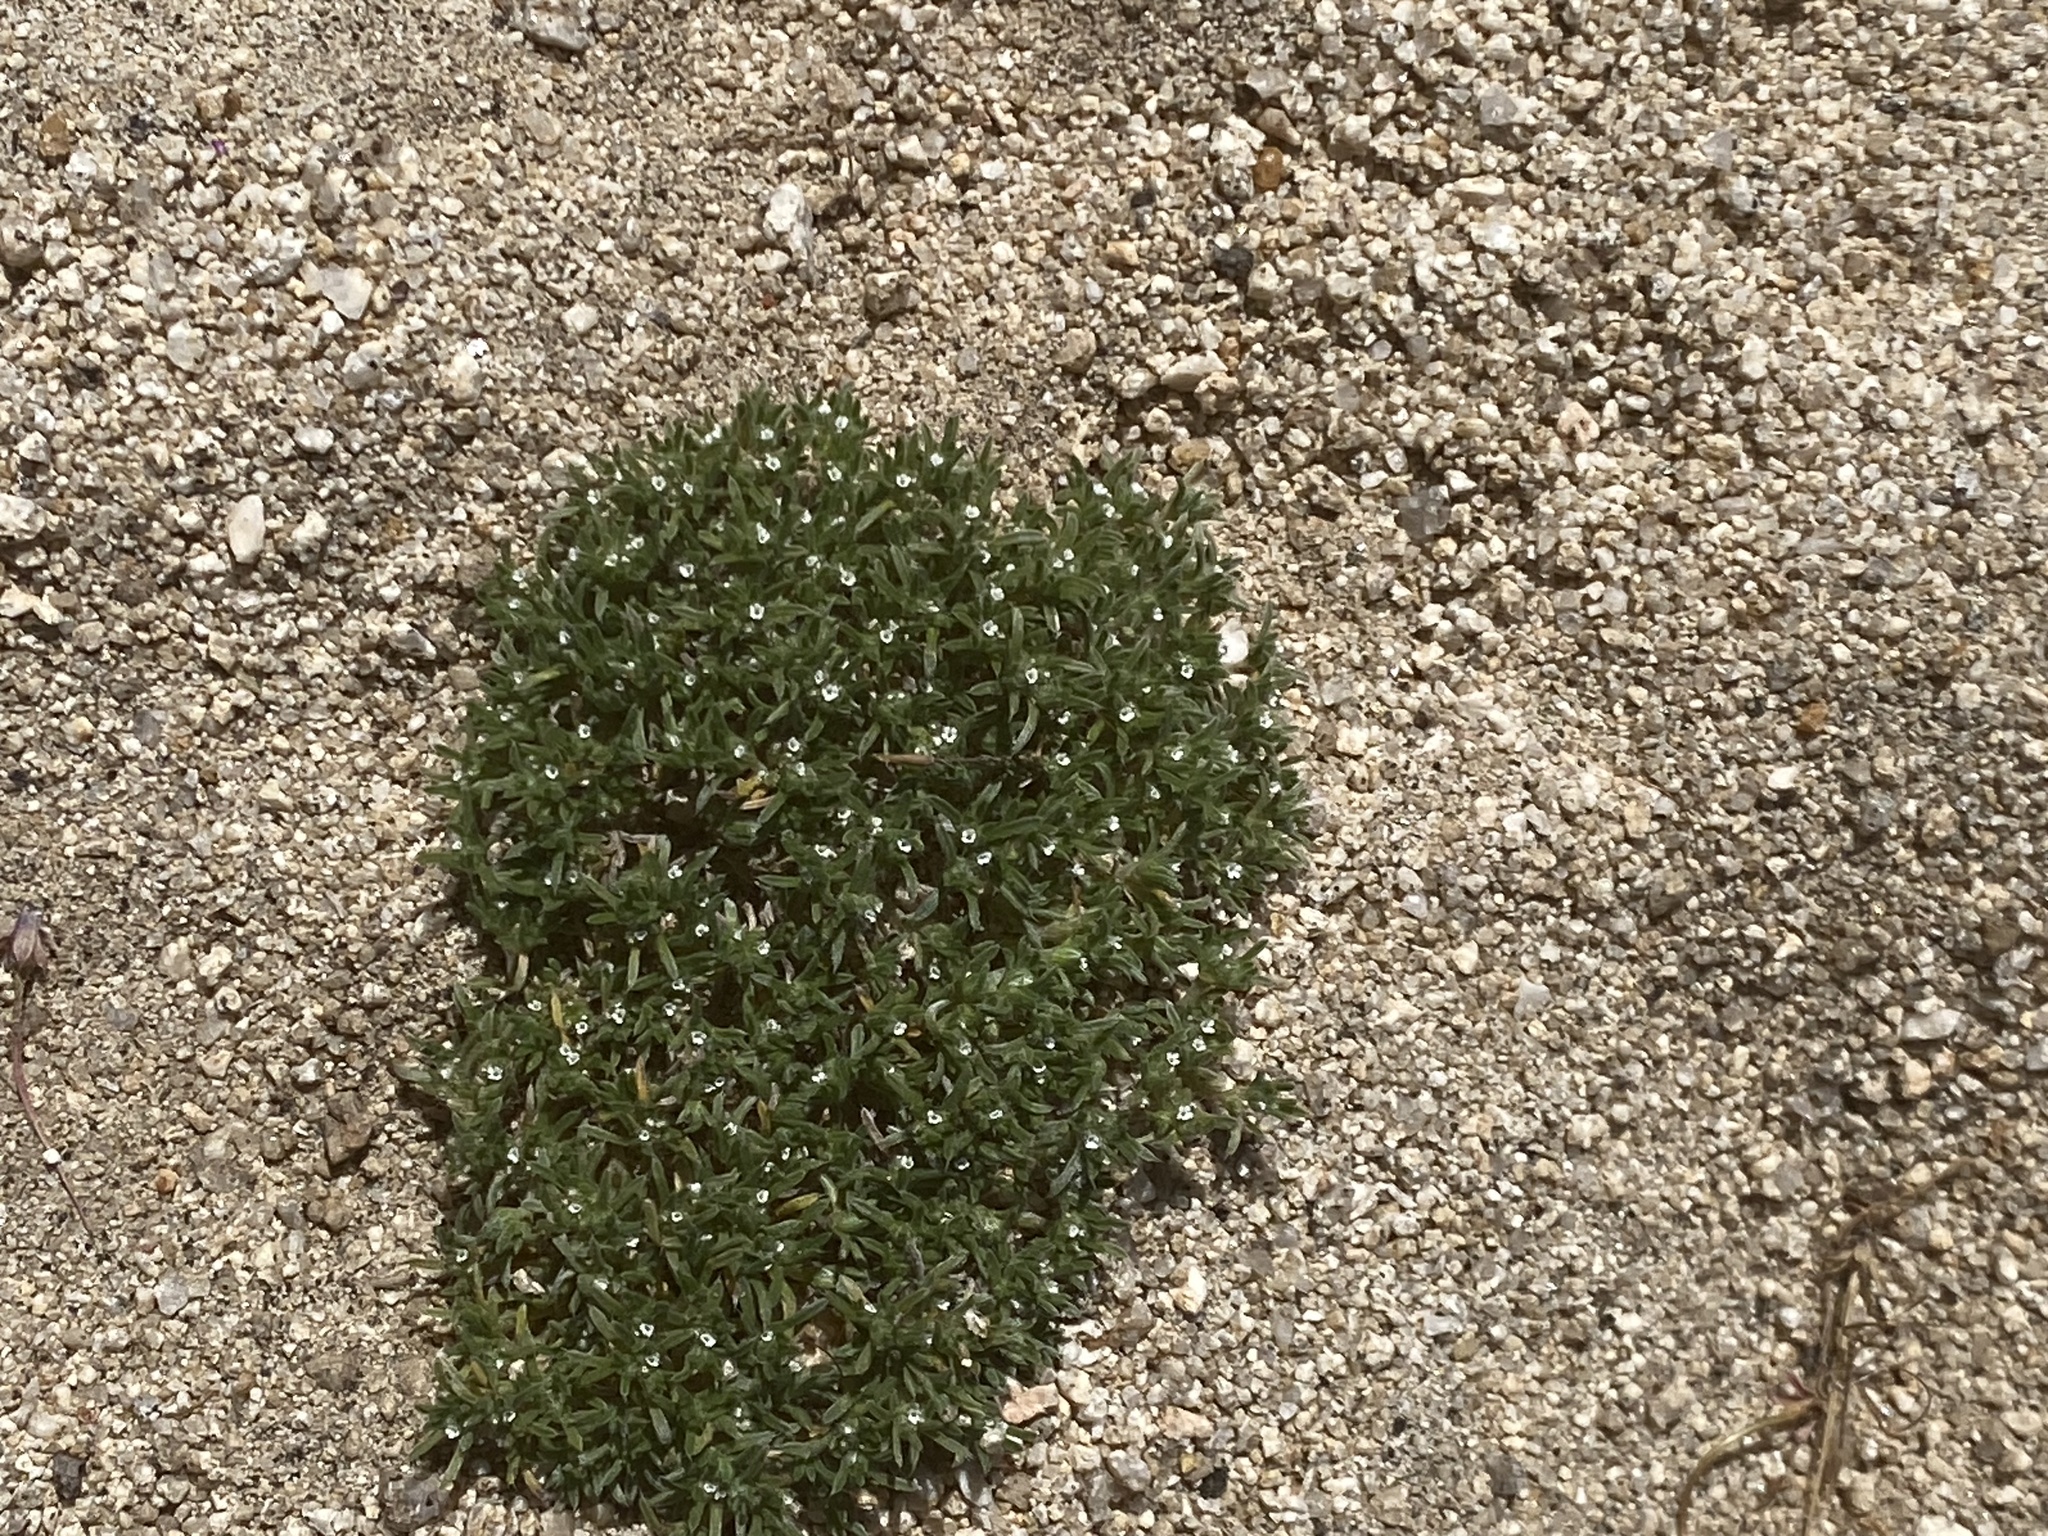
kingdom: Plantae
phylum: Tracheophyta
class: Magnoliopsida
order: Boraginales
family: Boraginaceae
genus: Greeneocharis
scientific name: Greeneocharis circumscissa
